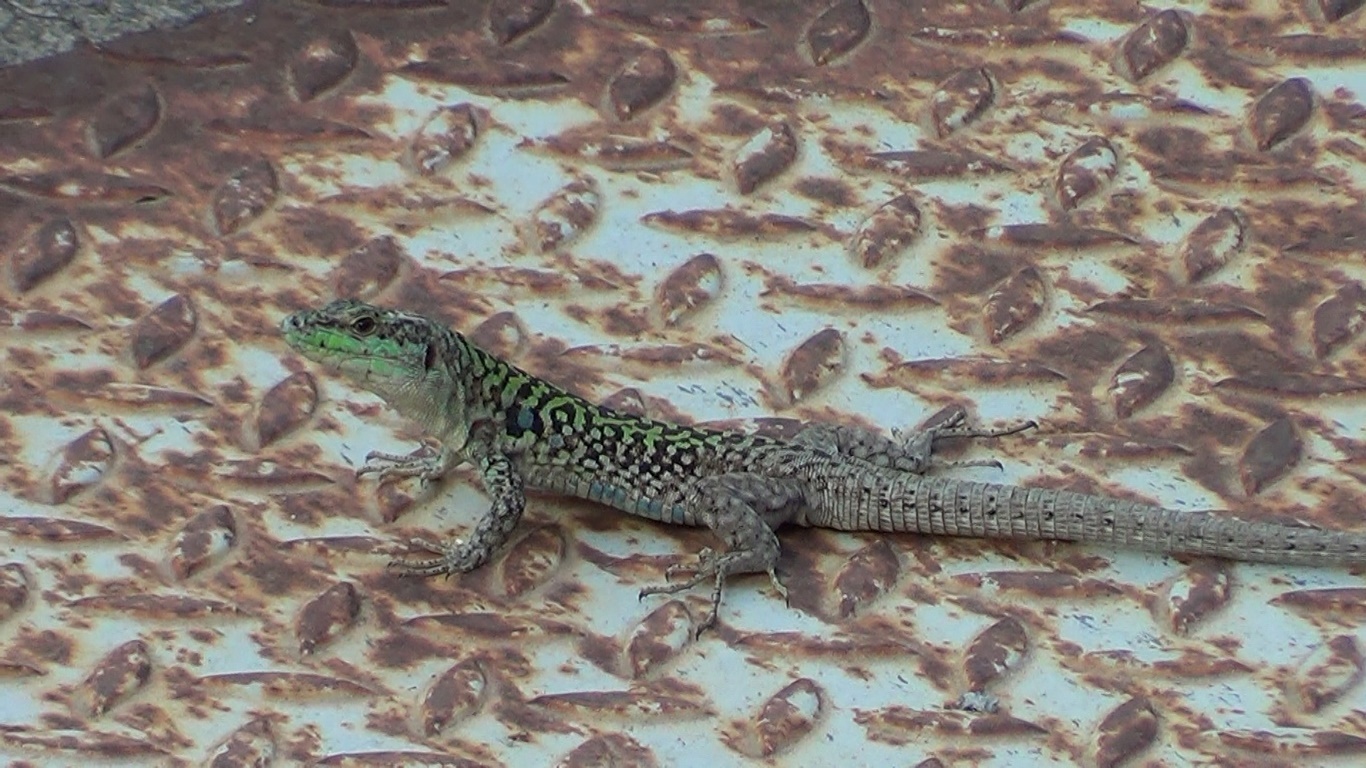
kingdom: Animalia
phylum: Chordata
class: Squamata
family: Lacertidae
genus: Podarcis
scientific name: Podarcis siculus
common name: Italian wall lizard
